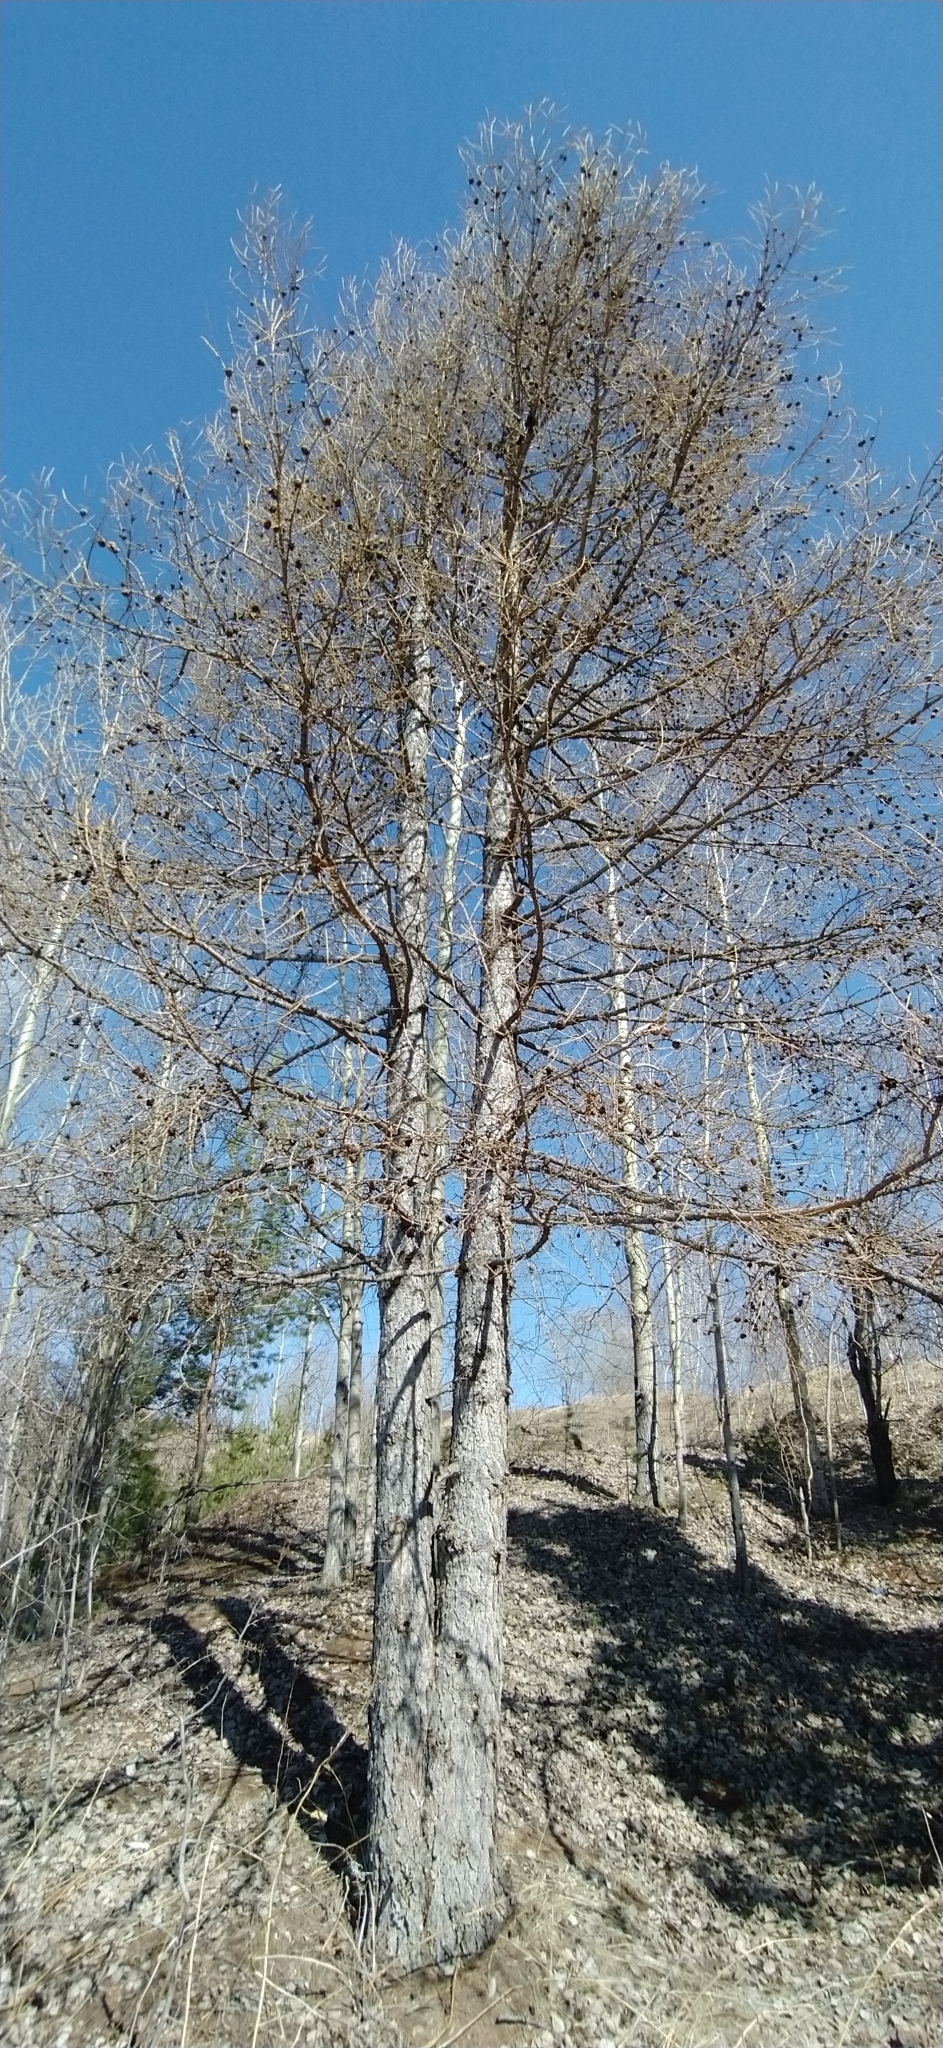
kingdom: Plantae
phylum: Tracheophyta
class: Pinopsida
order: Pinales
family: Pinaceae
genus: Larix
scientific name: Larix sibirica
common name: Siberian larch
